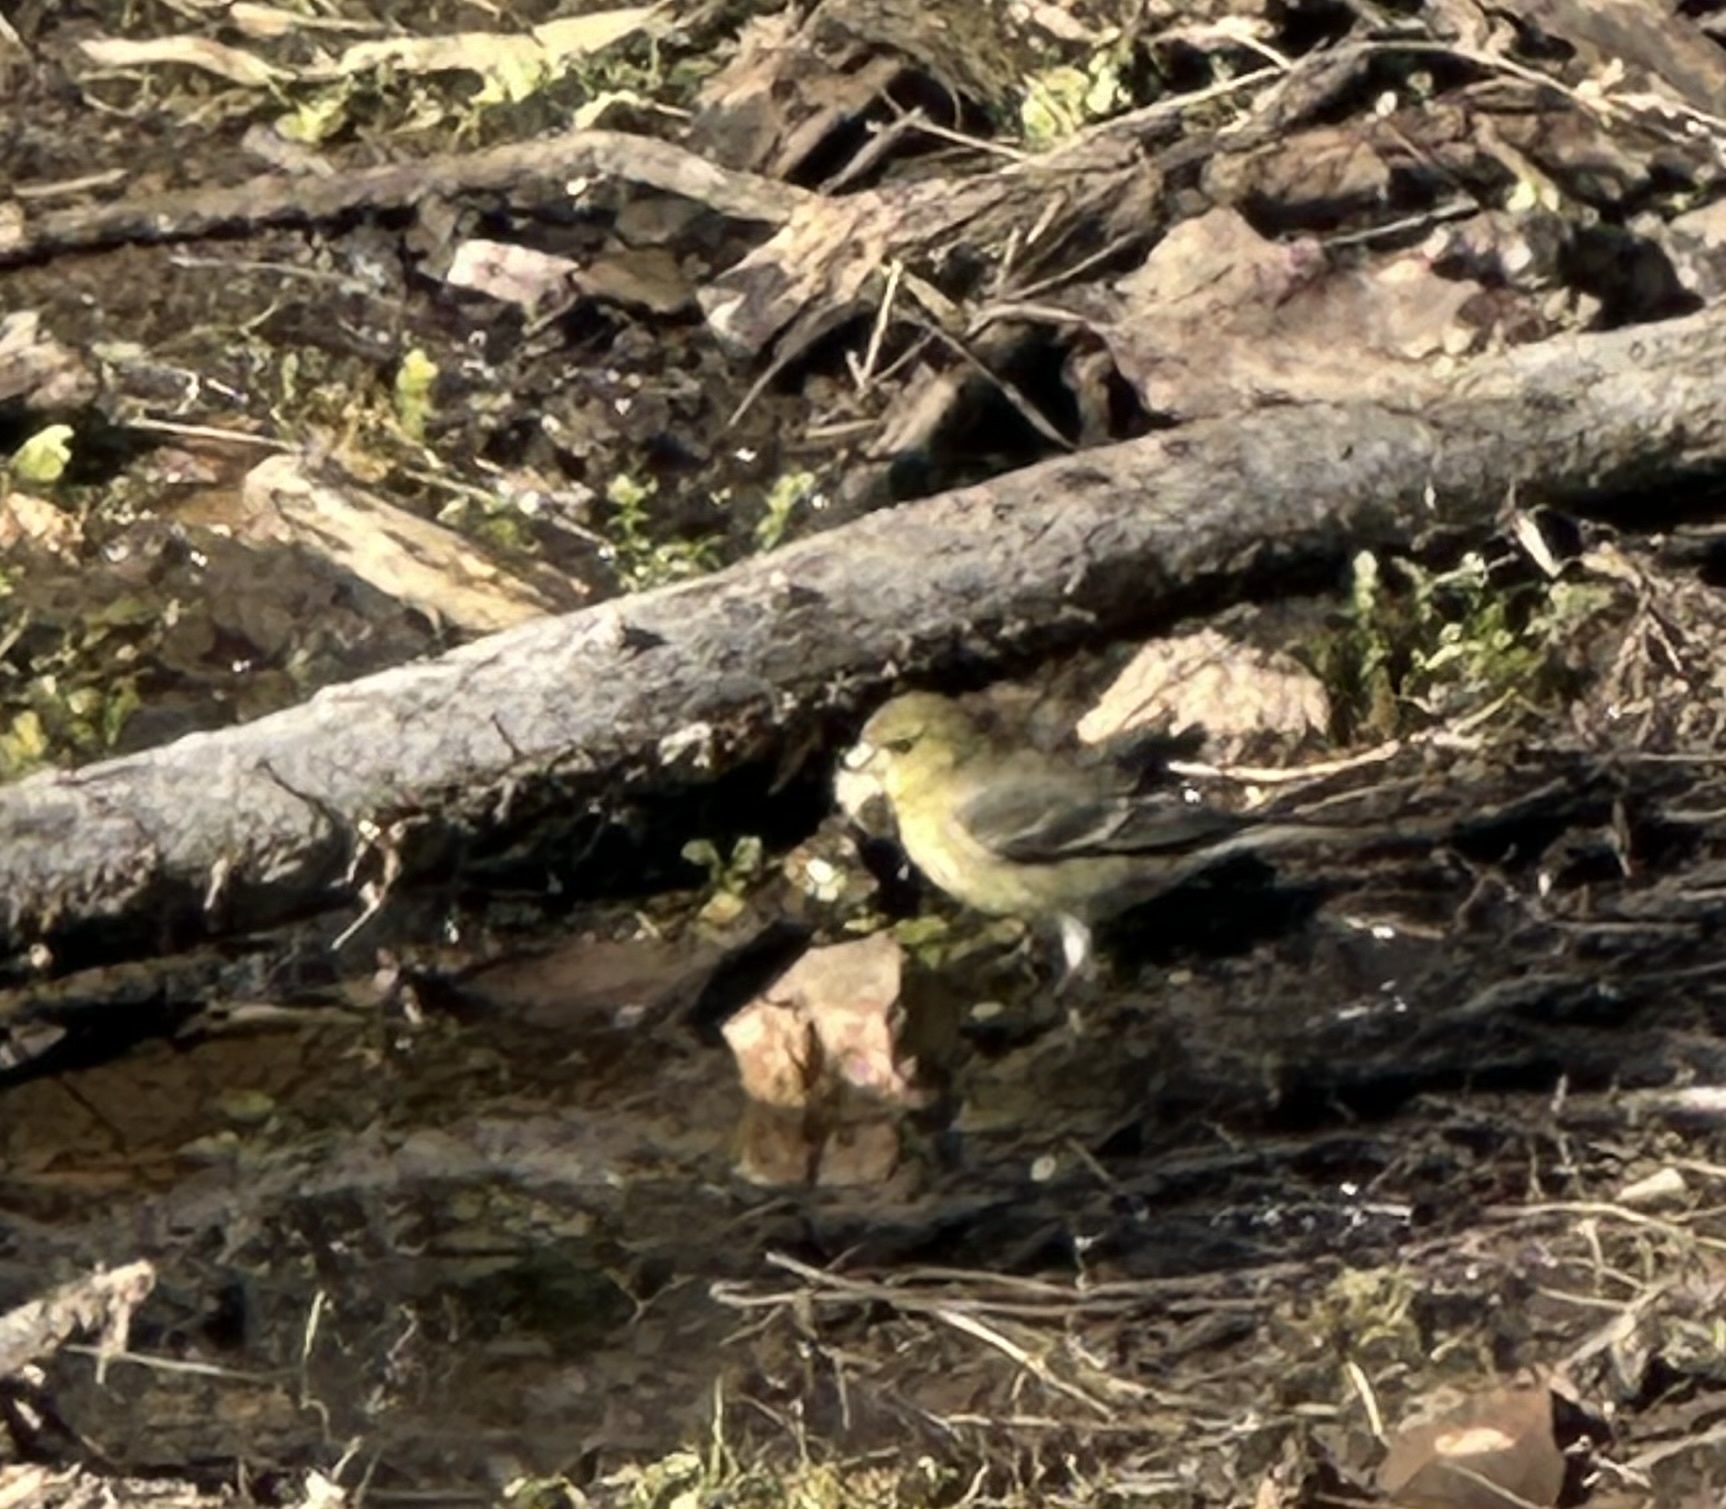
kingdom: Animalia
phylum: Chordata
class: Aves
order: Passeriformes
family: Fringillidae
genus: Spinus
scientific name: Spinus psaltria
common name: Lesser goldfinch
